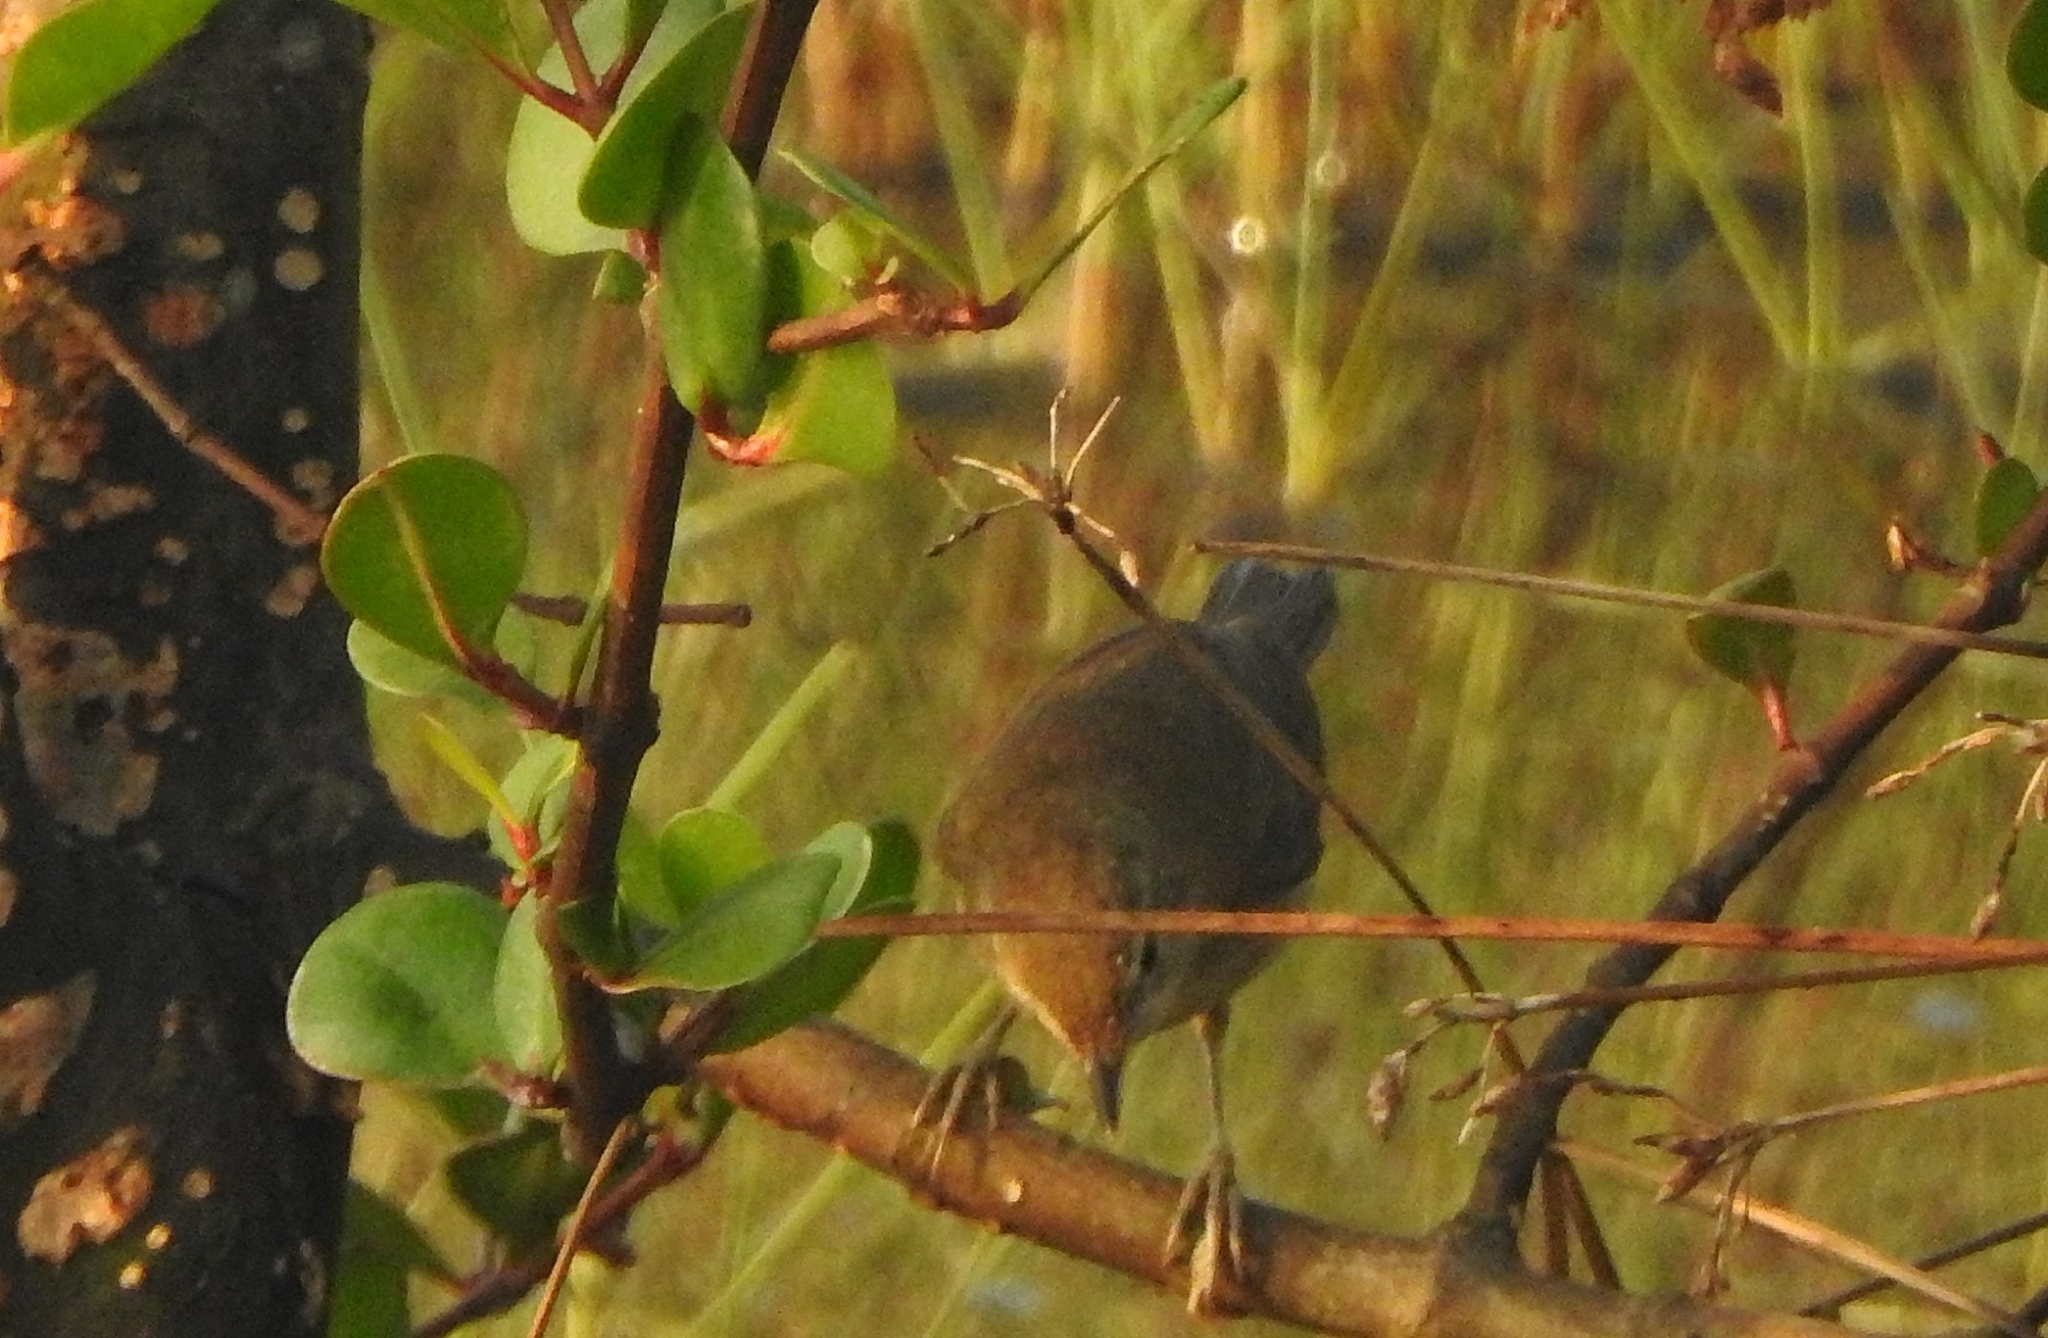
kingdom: Animalia
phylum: Chordata
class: Aves
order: Passeriformes
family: Acrocephalidae
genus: Acrocephalus
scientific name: Acrocephalus dumetorum
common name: Blyth's reed warbler
